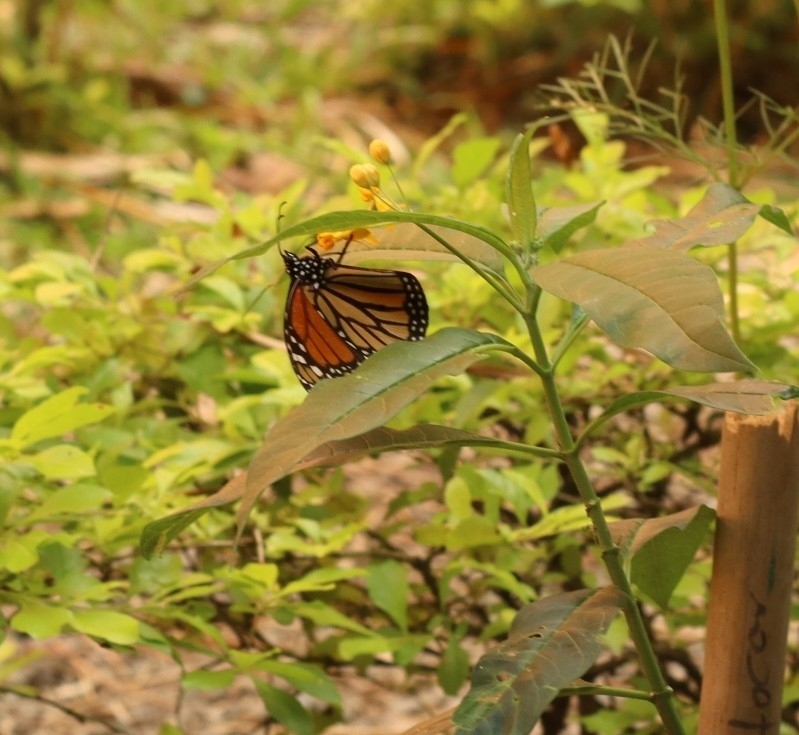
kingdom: Animalia
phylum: Arthropoda
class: Insecta
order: Lepidoptera
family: Nymphalidae
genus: Danaus
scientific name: Danaus plexippus
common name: Monarch
